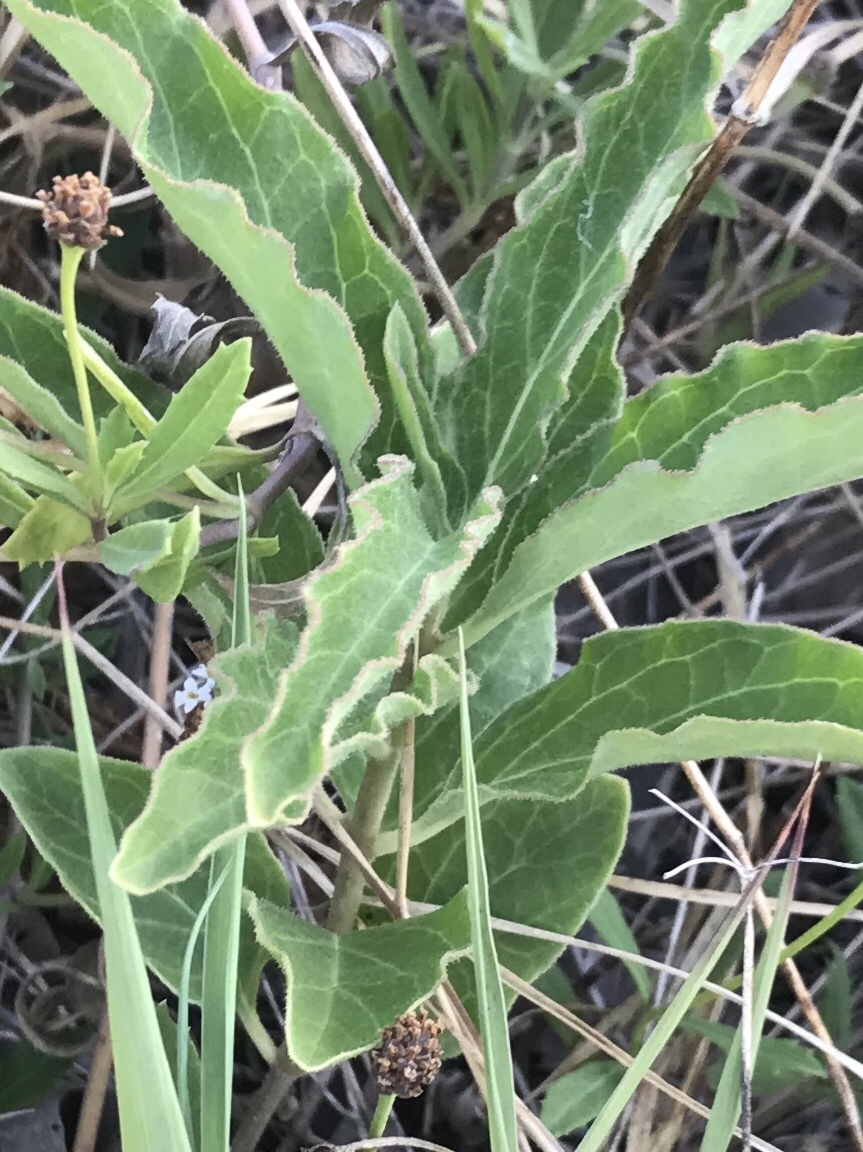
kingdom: Plantae
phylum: Tracheophyta
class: Magnoliopsida
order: Gentianales
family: Apocynaceae
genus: Asclepias
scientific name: Asclepias oenotheroides
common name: Zizotes milkweed
